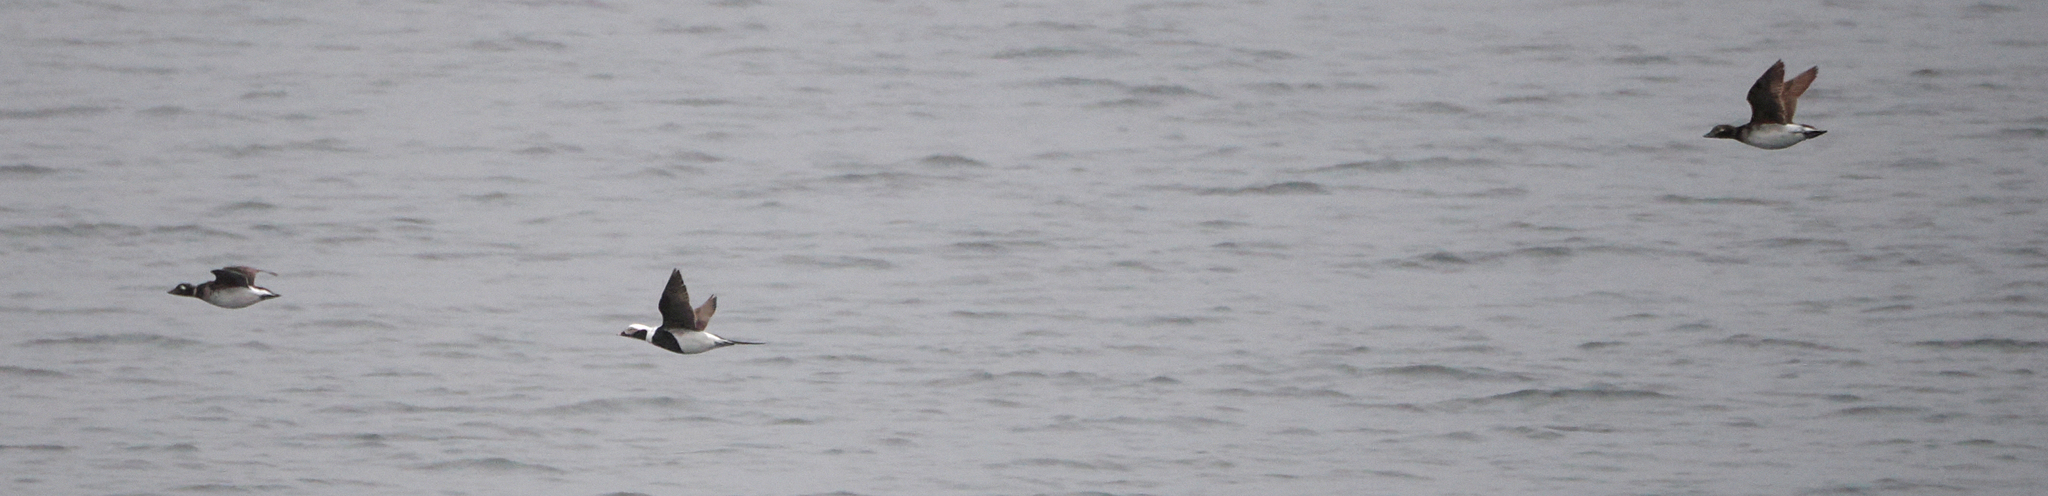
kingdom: Animalia
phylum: Chordata
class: Aves
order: Anseriformes
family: Anatidae
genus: Clangula
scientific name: Clangula hyemalis
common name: Long-tailed duck
